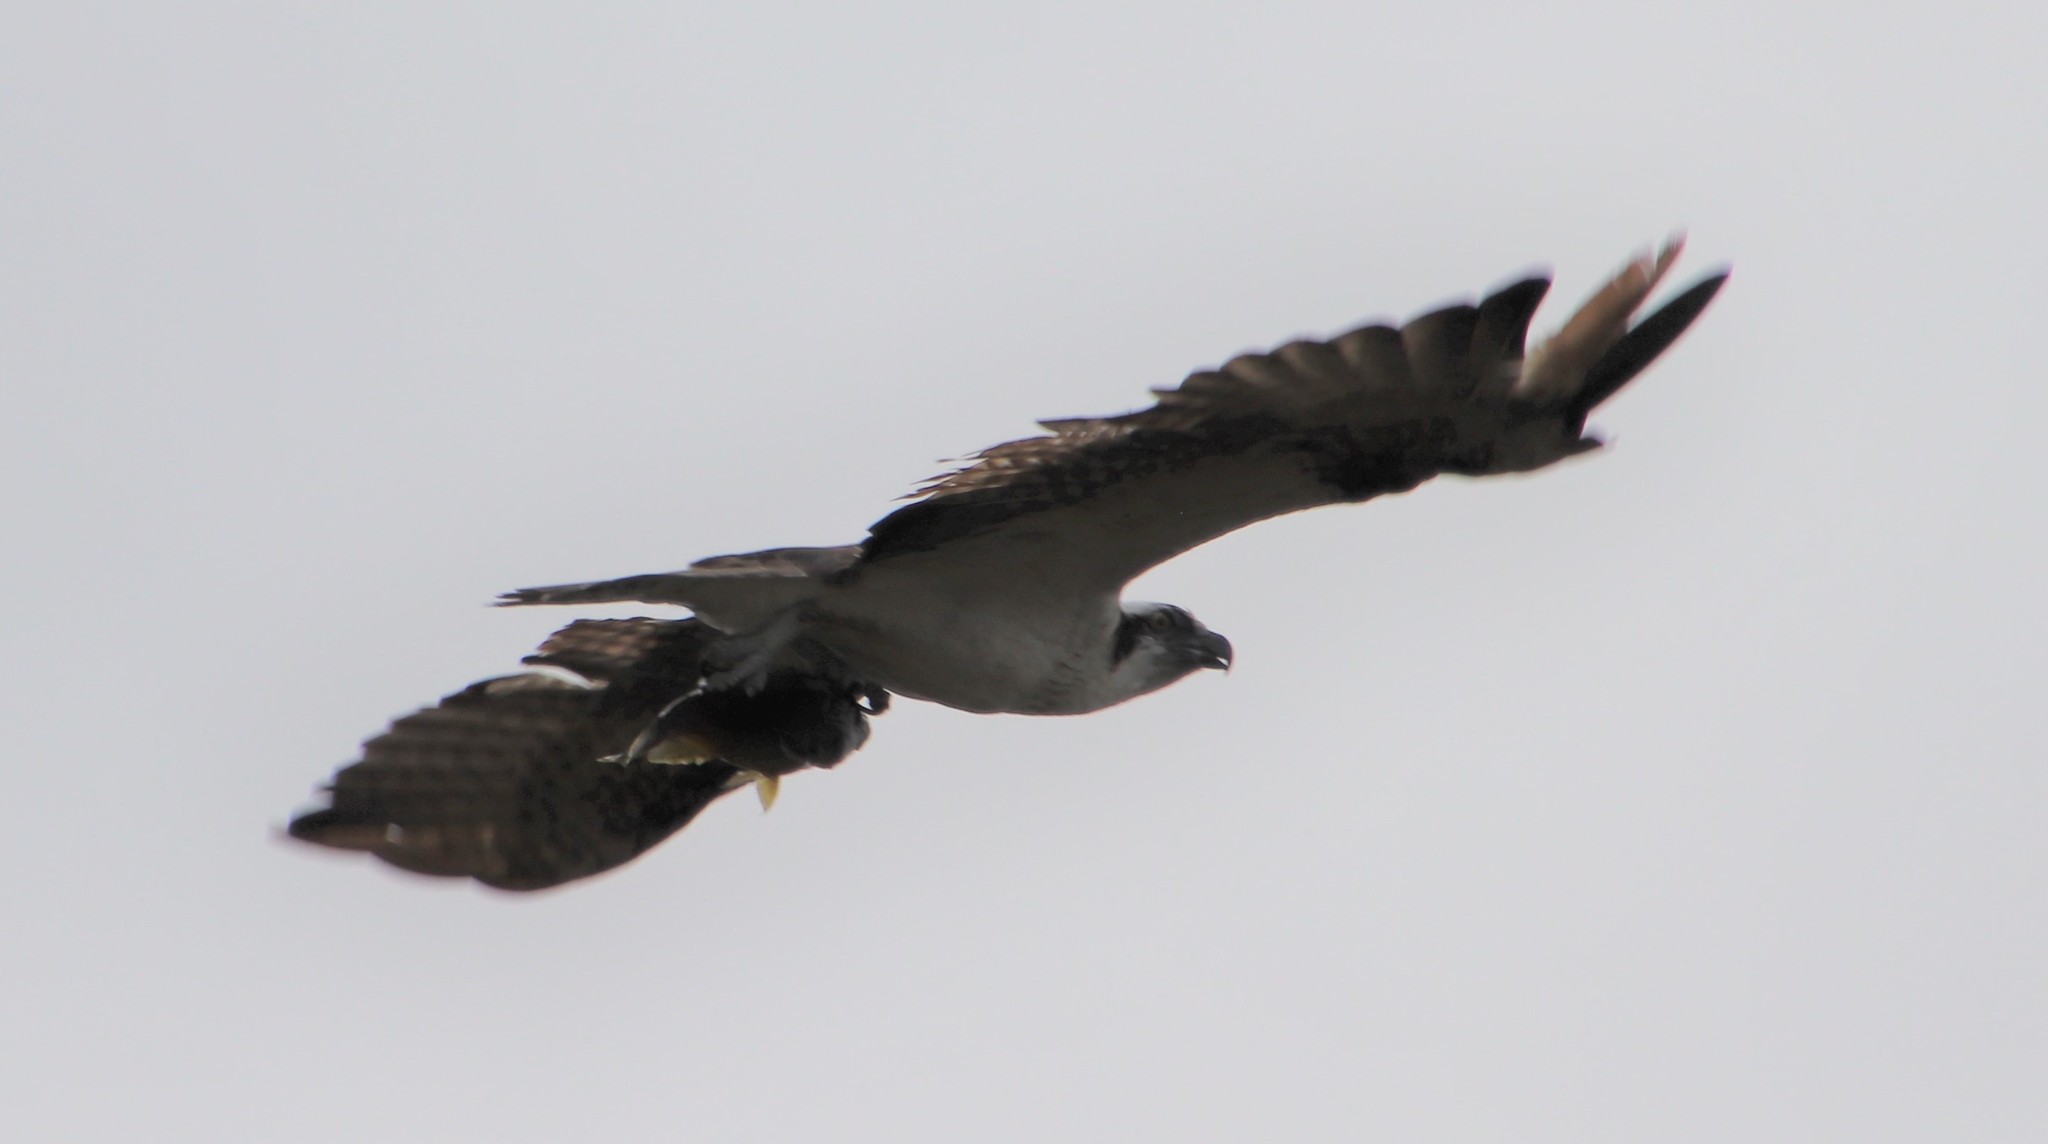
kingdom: Animalia
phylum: Chordata
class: Aves
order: Accipitriformes
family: Pandionidae
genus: Pandion
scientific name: Pandion haliaetus
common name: Osprey
